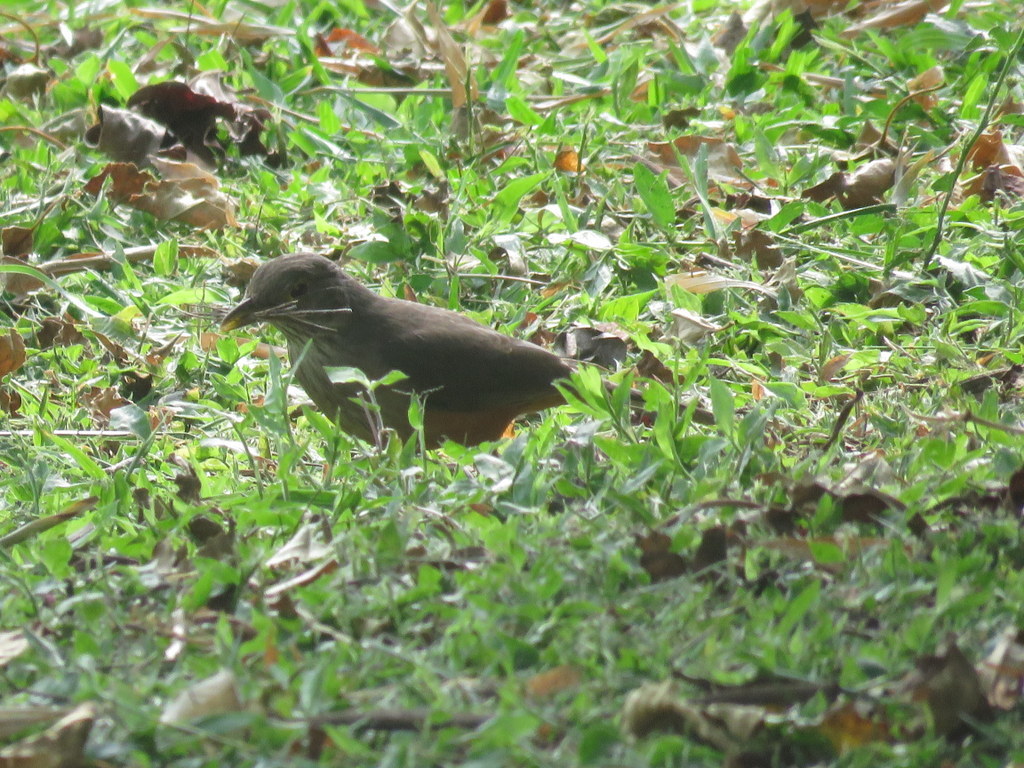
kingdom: Animalia
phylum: Chordata
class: Aves
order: Passeriformes
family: Turdidae
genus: Turdus
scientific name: Turdus rufiventris
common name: Rufous-bellied thrush
